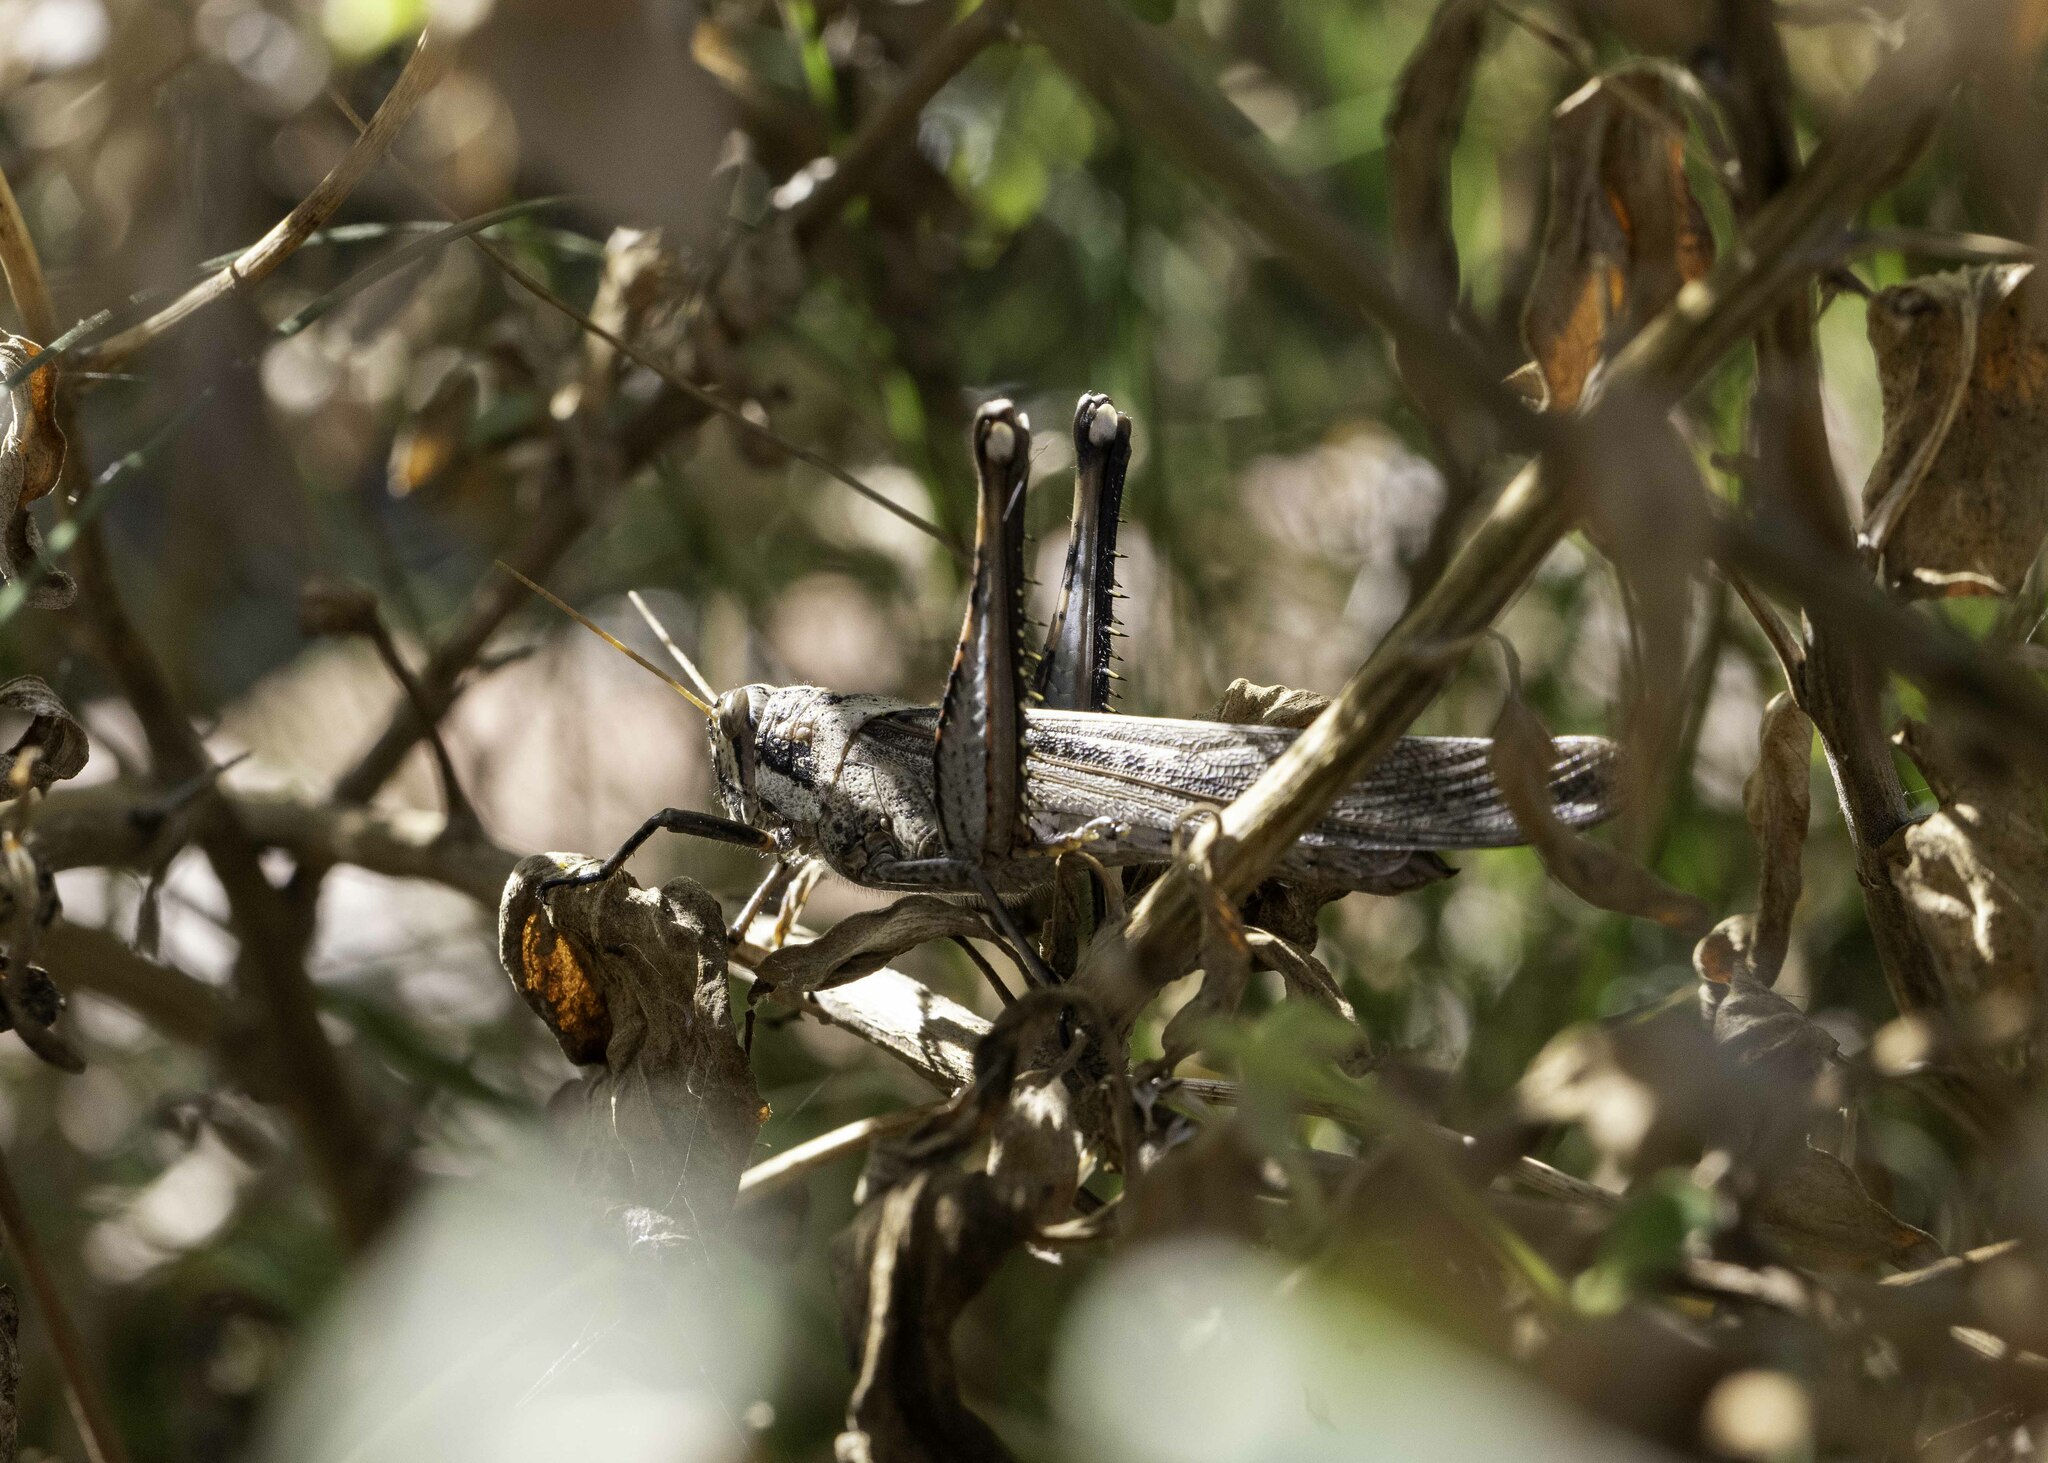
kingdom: Animalia
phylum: Arthropoda
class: Insecta
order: Orthoptera
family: Acrididae
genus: Schistocerca
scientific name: Schistocerca nitens
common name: Vagrant grasshopper
